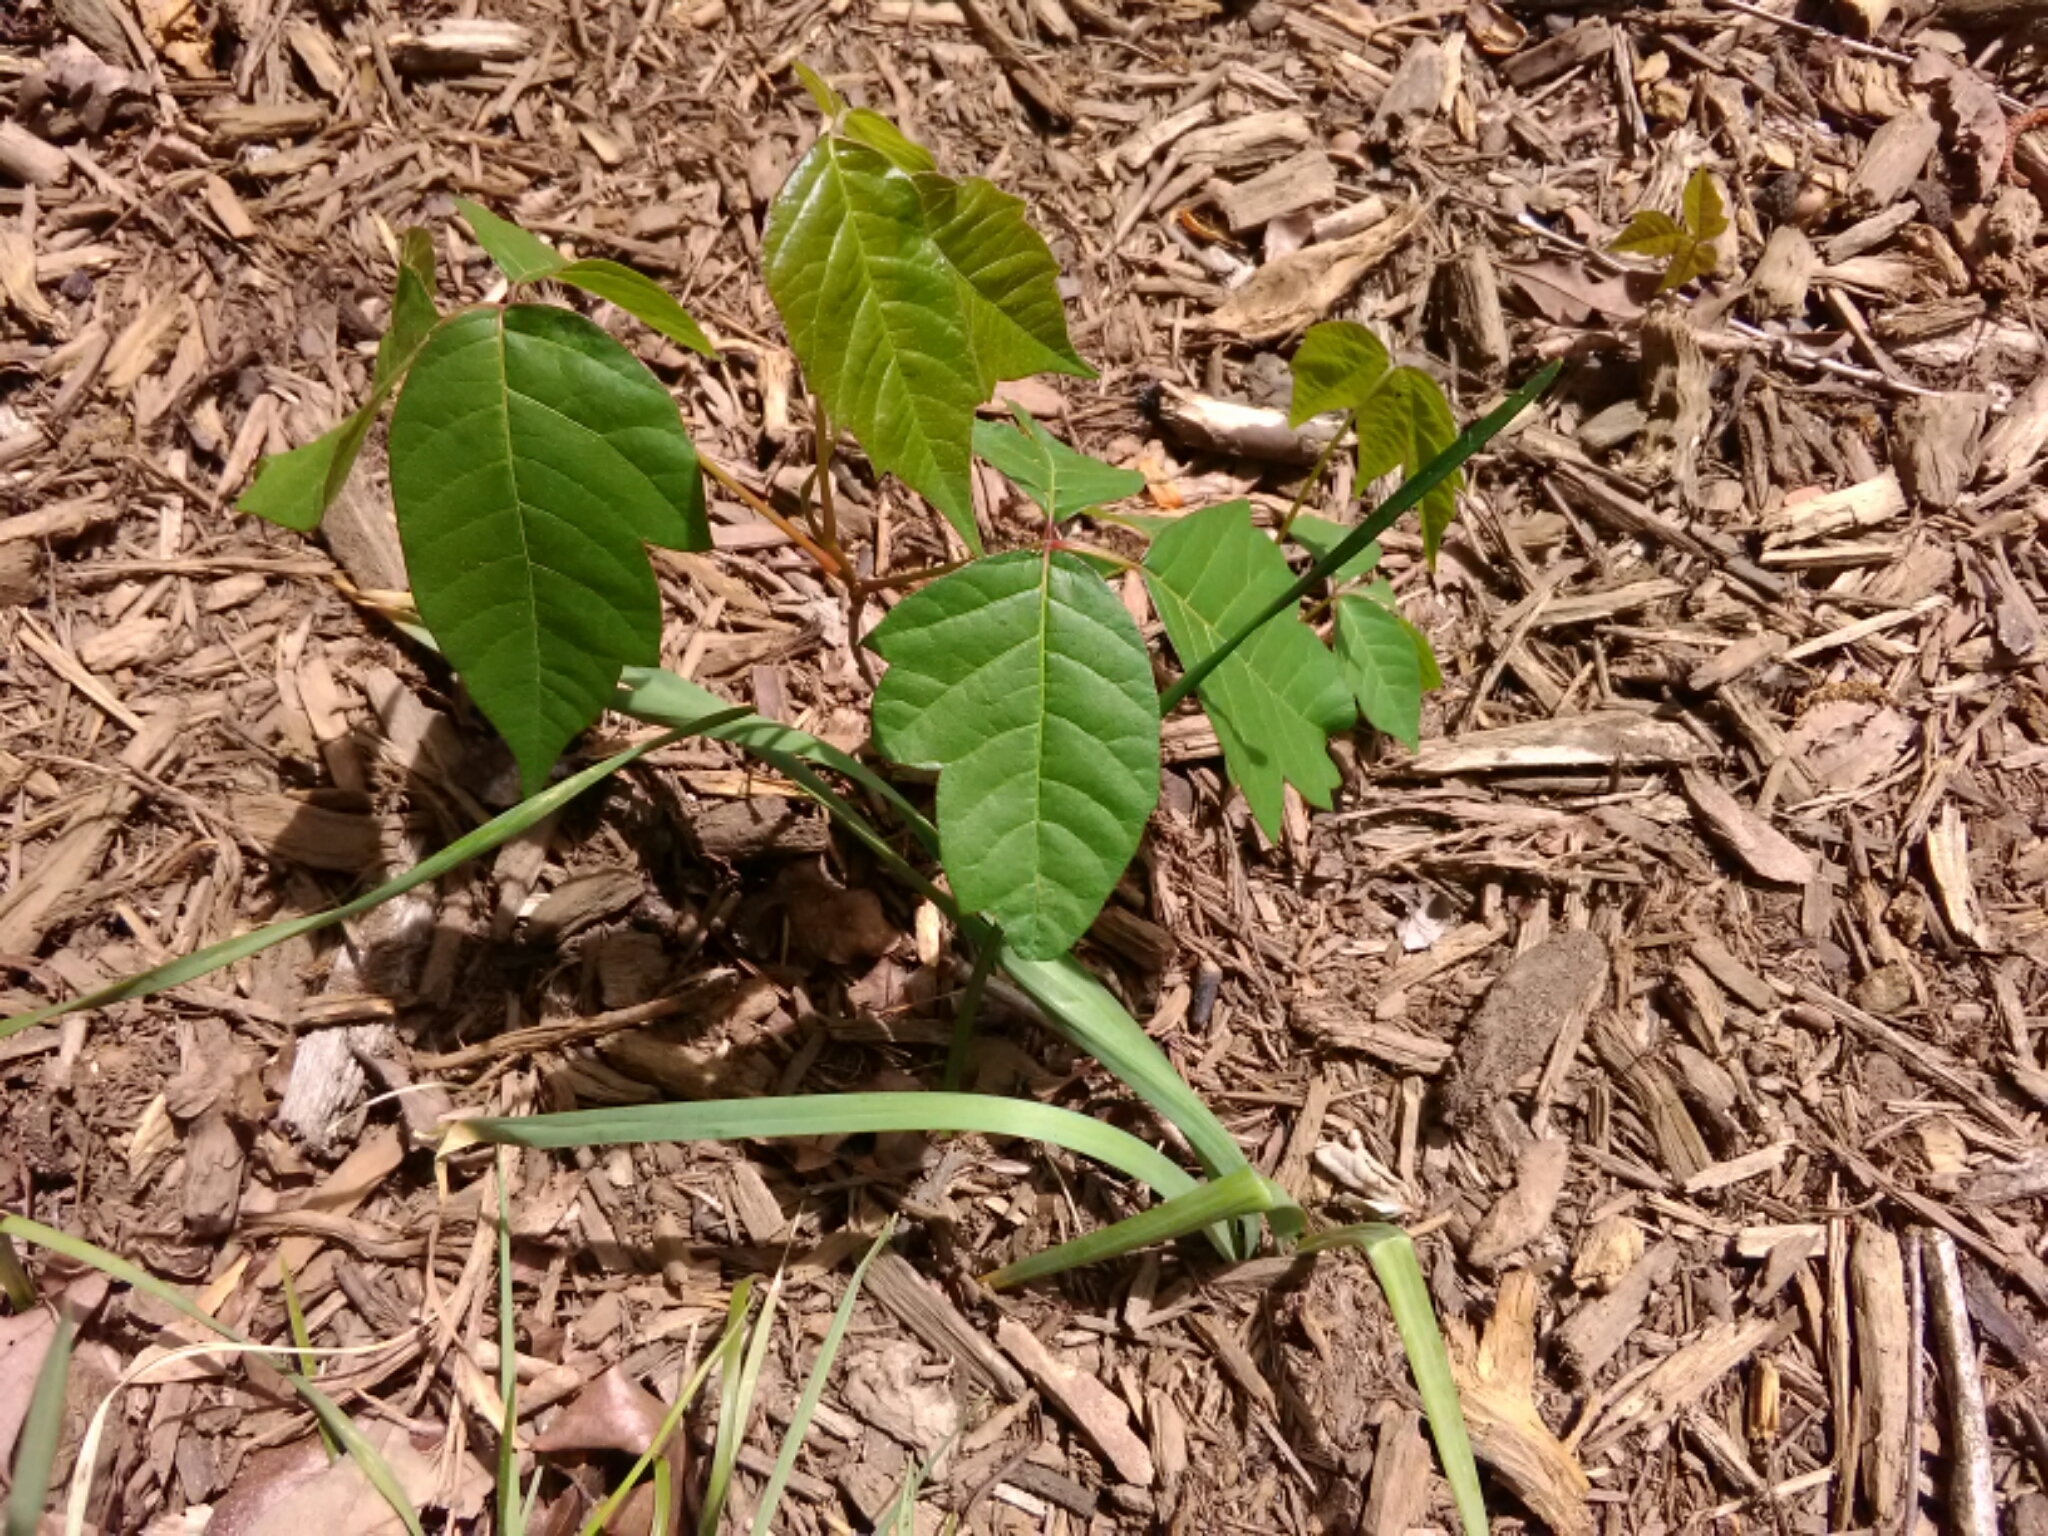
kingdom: Plantae
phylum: Tracheophyta
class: Magnoliopsida
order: Sapindales
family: Anacardiaceae
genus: Toxicodendron
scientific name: Toxicodendron radicans
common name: Poison ivy
